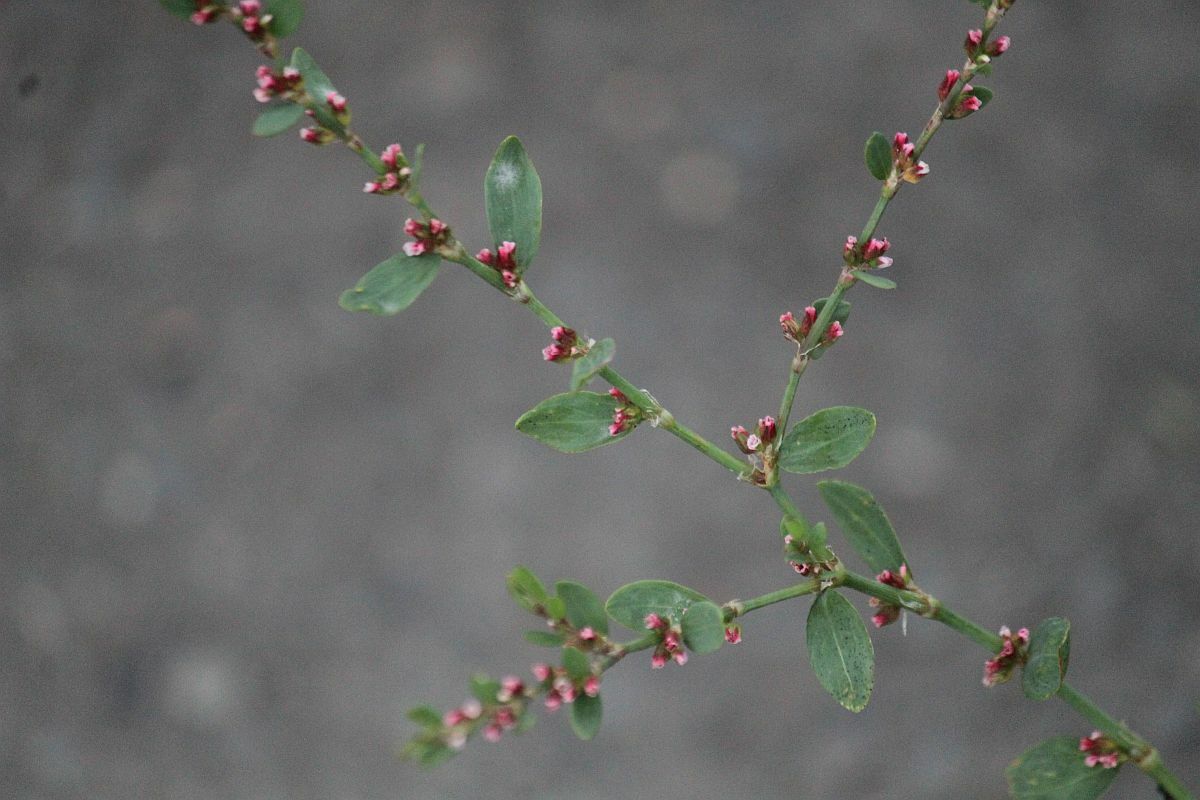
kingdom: Plantae
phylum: Tracheophyta
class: Magnoliopsida
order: Caryophyllales
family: Polygonaceae
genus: Polygonum
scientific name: Polygonum aviculare
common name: Prostrate knotweed
